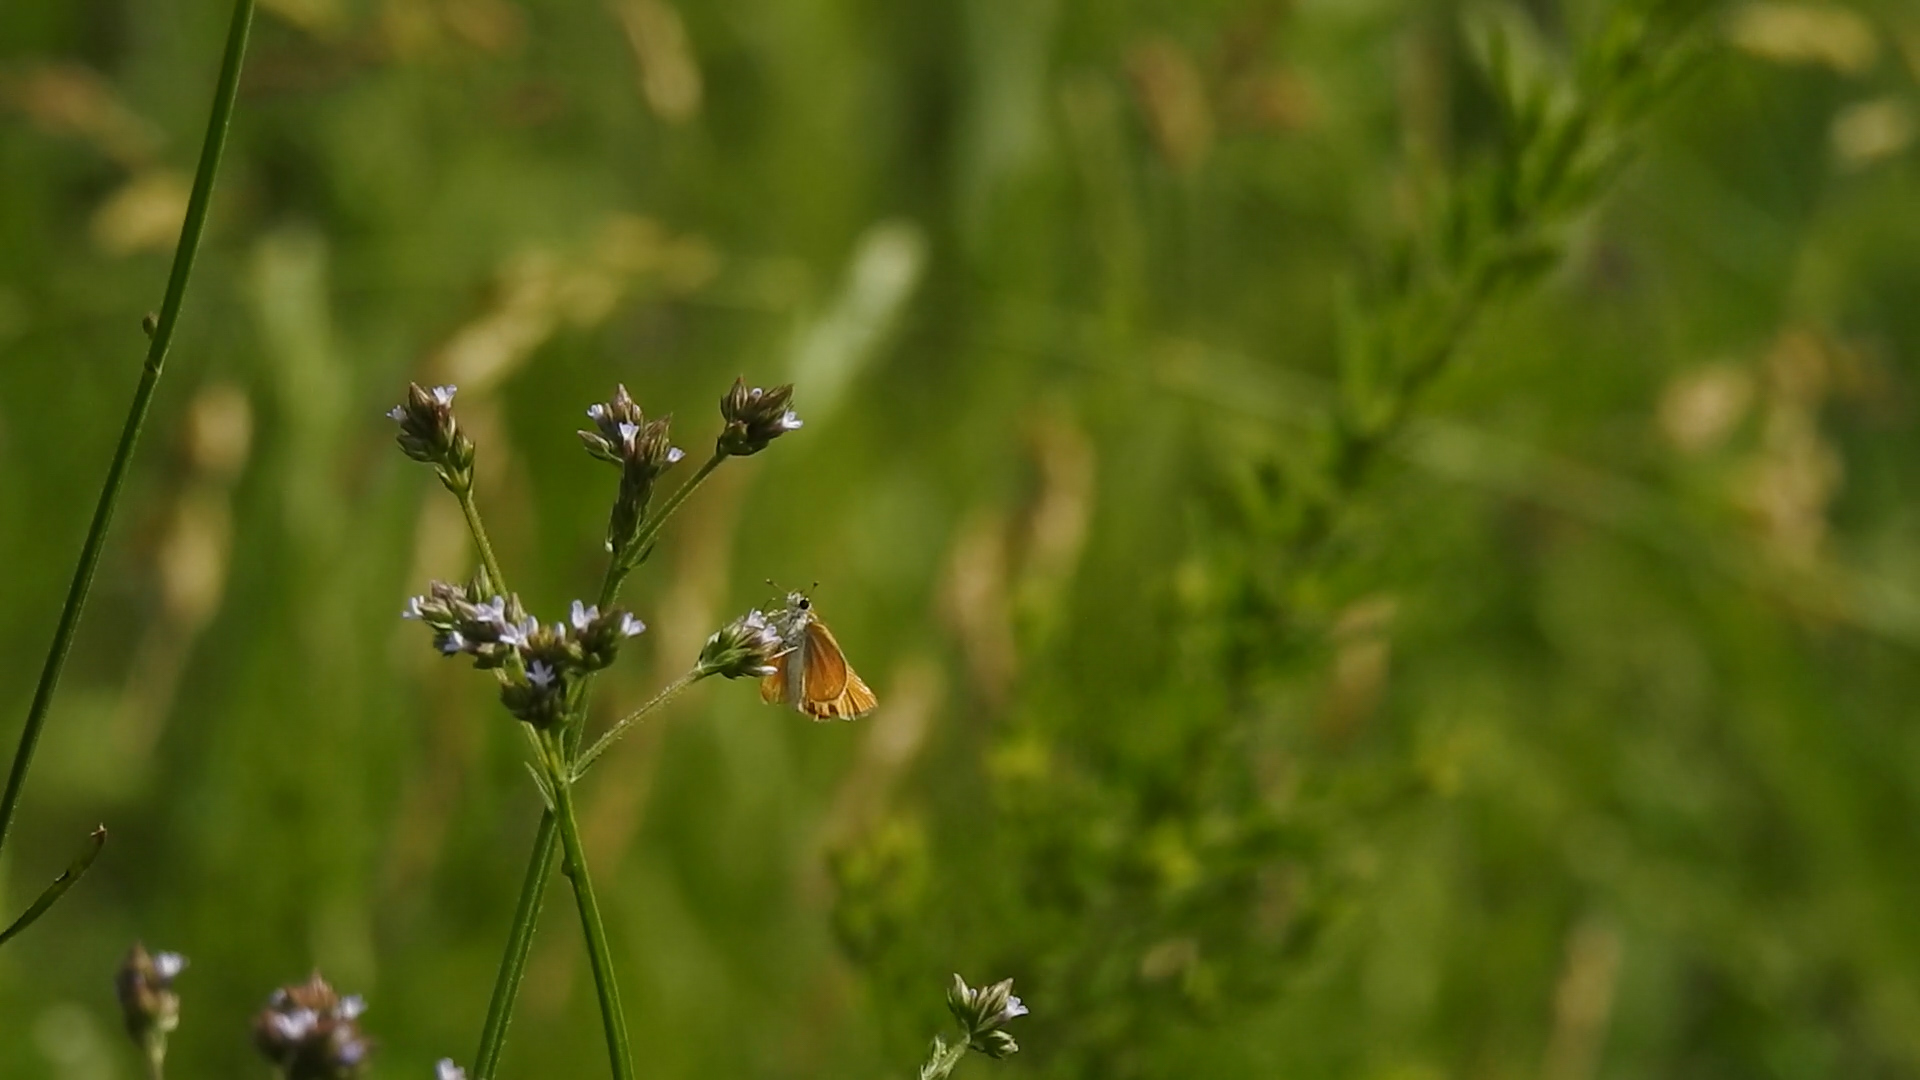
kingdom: Animalia
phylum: Arthropoda
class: Insecta
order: Lepidoptera
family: Hesperiidae
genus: Copaeodes
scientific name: Copaeodes minima
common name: Southern skipperling
